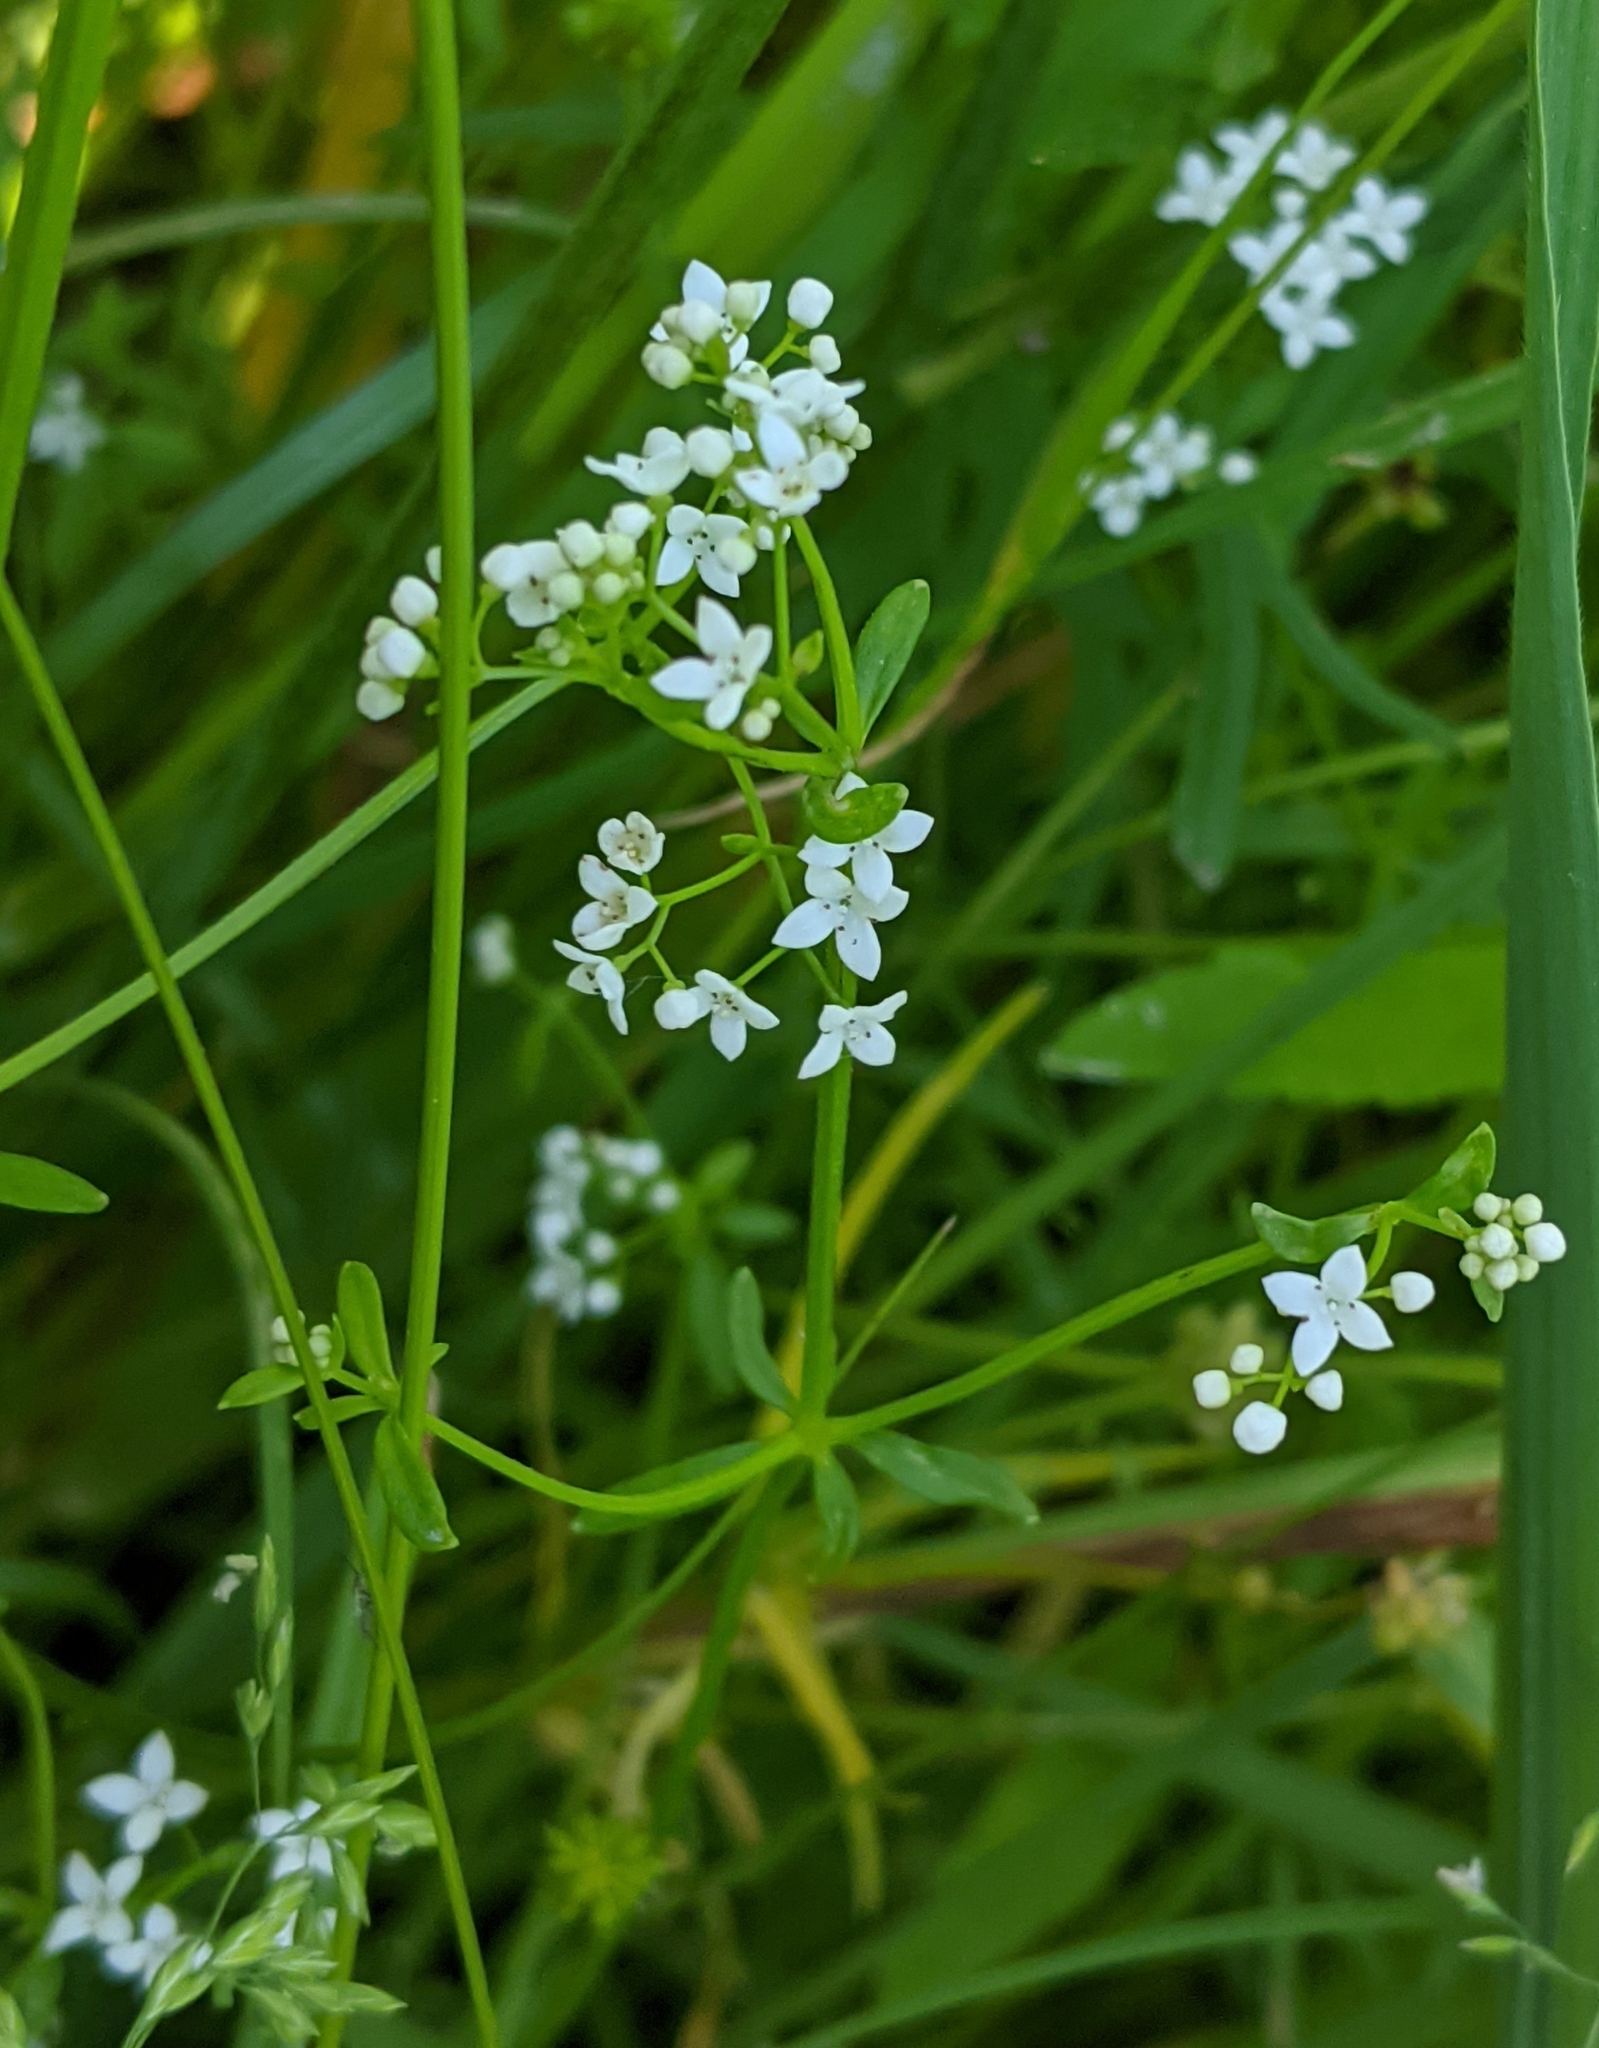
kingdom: Plantae
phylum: Tracheophyta
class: Magnoliopsida
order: Gentianales
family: Rubiaceae
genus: Galium
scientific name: Galium palustre
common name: Common marsh-bedstraw
